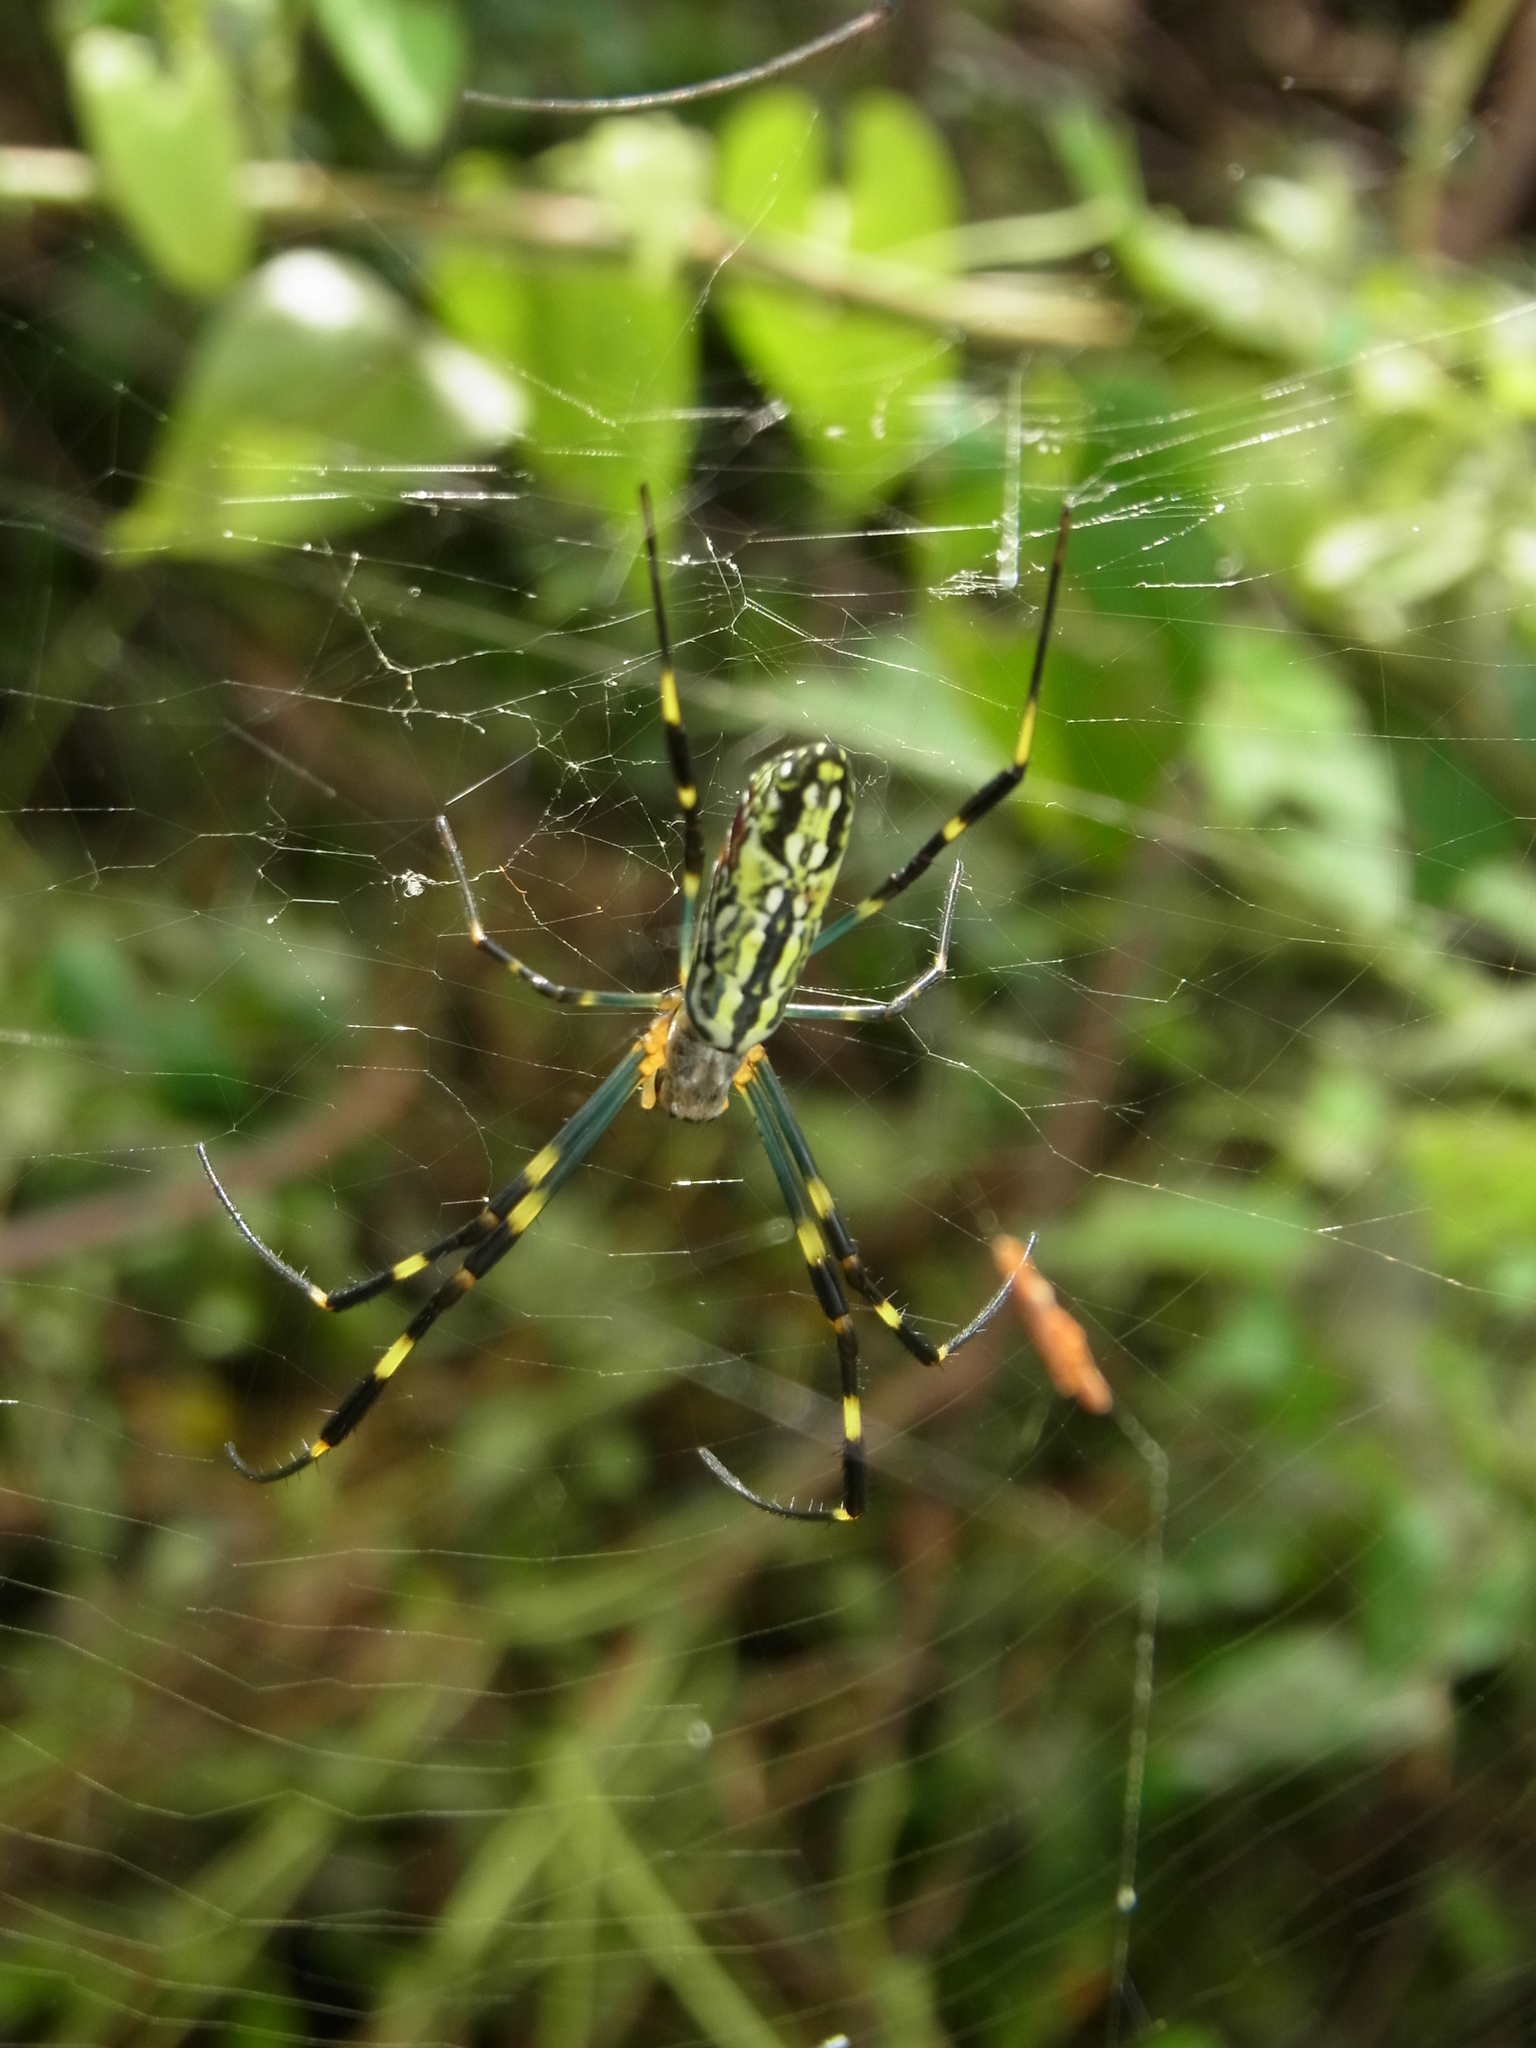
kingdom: Animalia
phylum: Arthropoda
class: Arachnida
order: Araneae
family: Araneidae
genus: Trichonephila
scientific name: Trichonephila clavata
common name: Jorō spider
